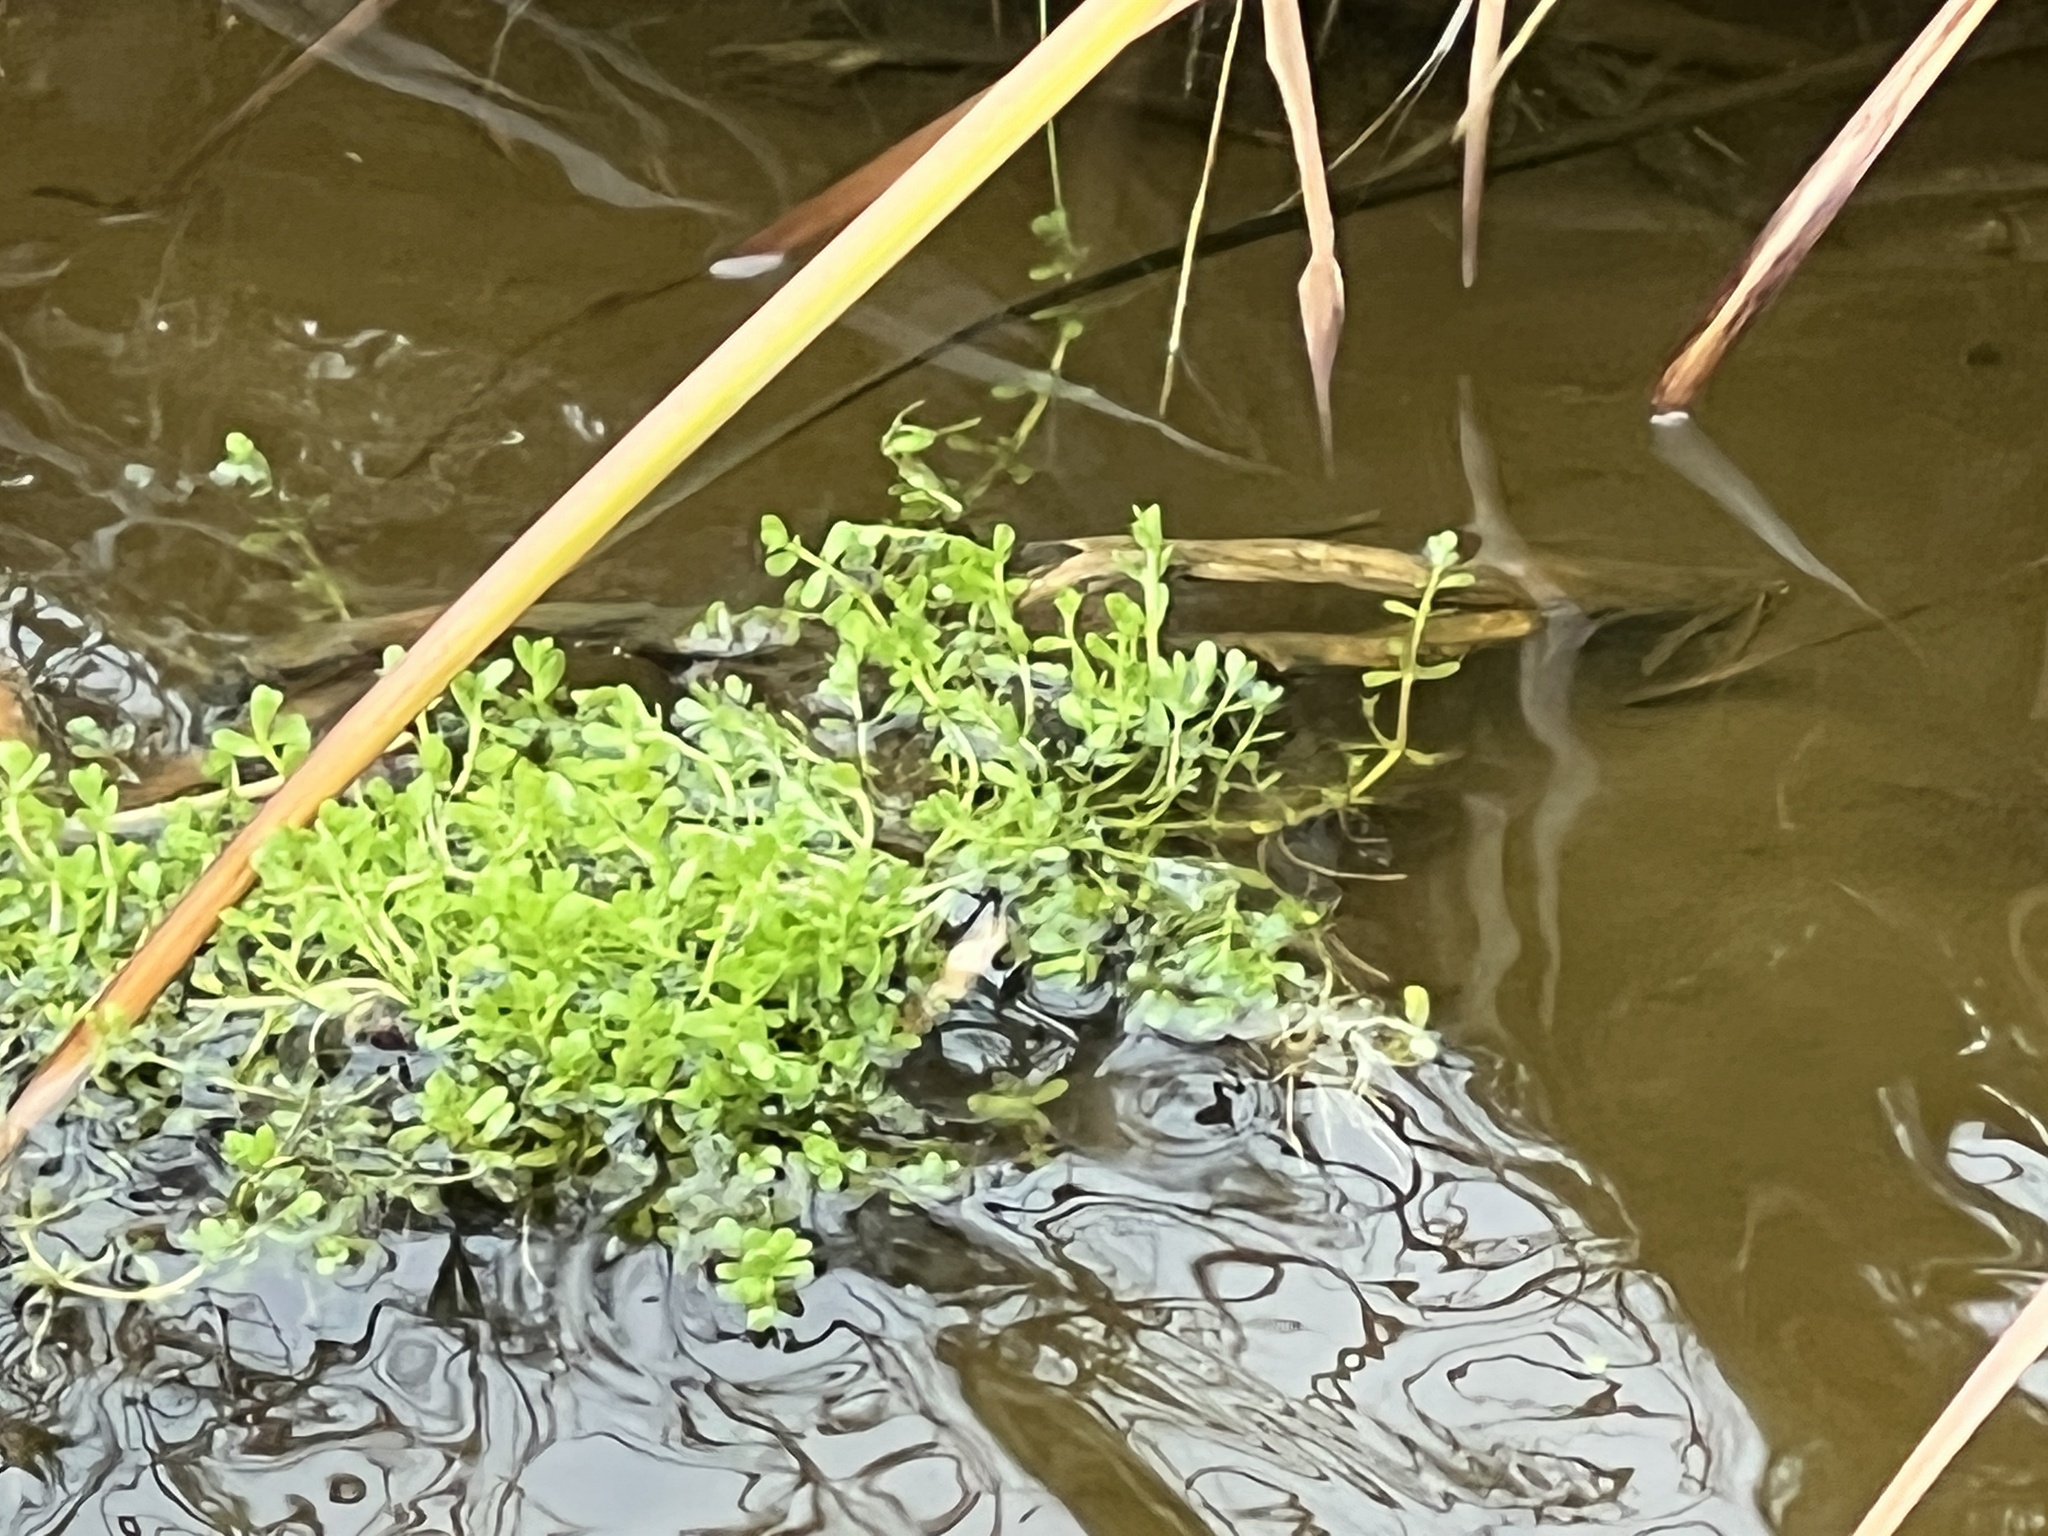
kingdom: Plantae
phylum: Tracheophyta
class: Magnoliopsida
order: Lamiales
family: Plantaginaceae
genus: Bacopa
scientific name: Bacopa monnieri
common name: Indian-pennywort
